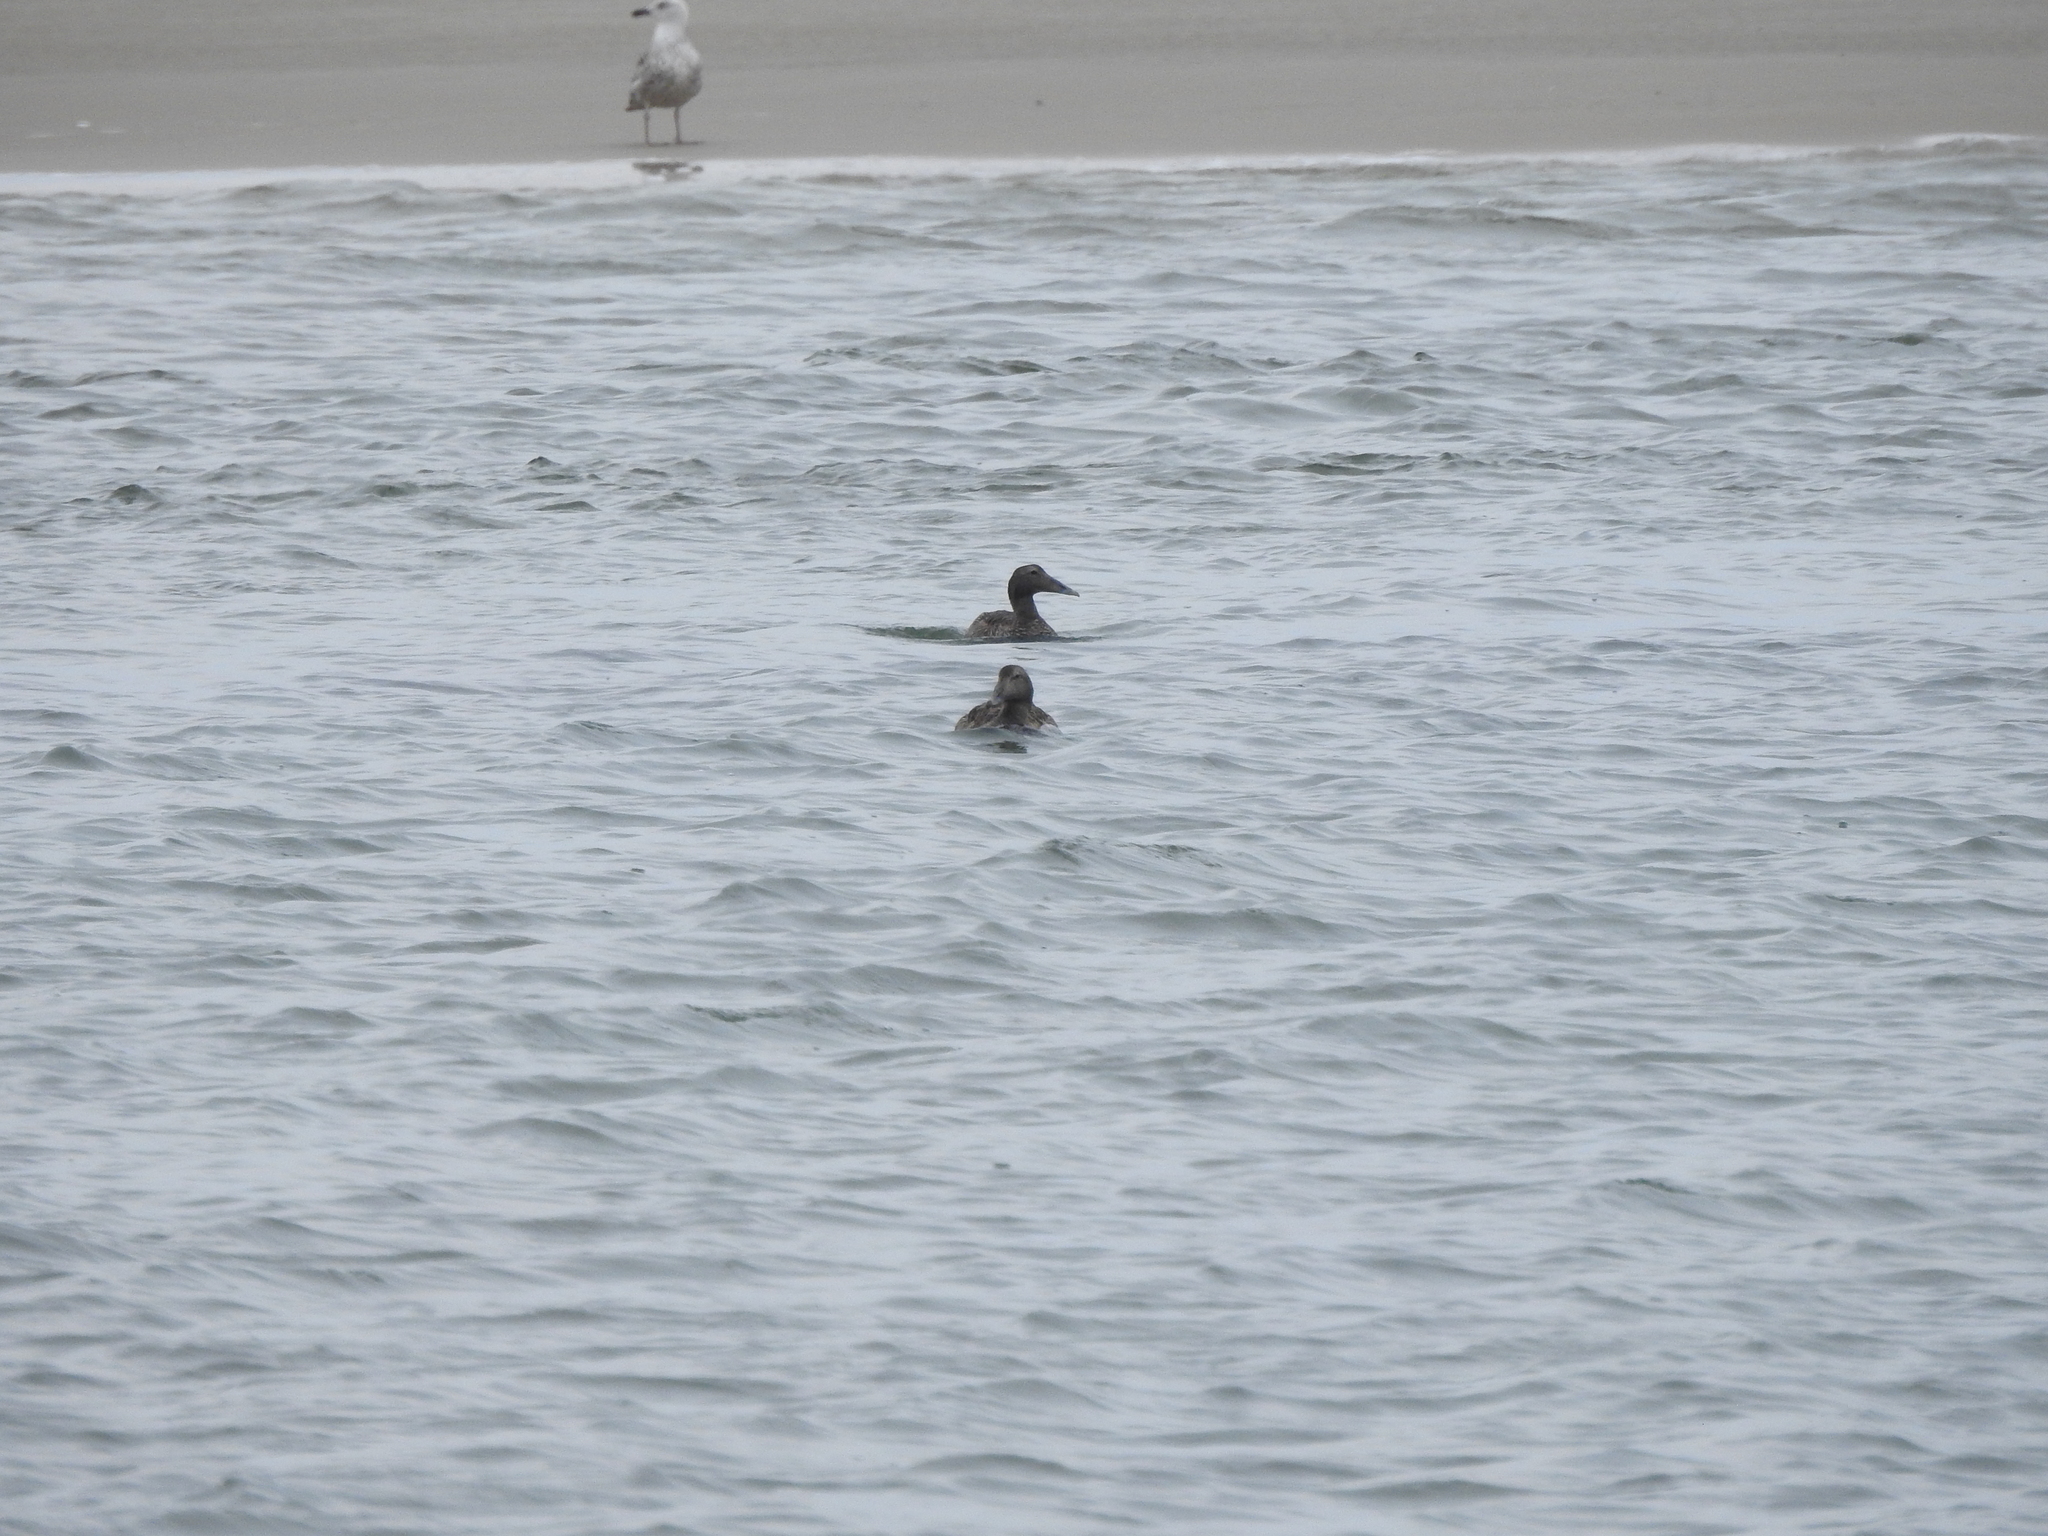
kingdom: Animalia
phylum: Chordata
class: Aves
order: Anseriformes
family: Anatidae
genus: Somateria
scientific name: Somateria mollissima
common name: Common eider
